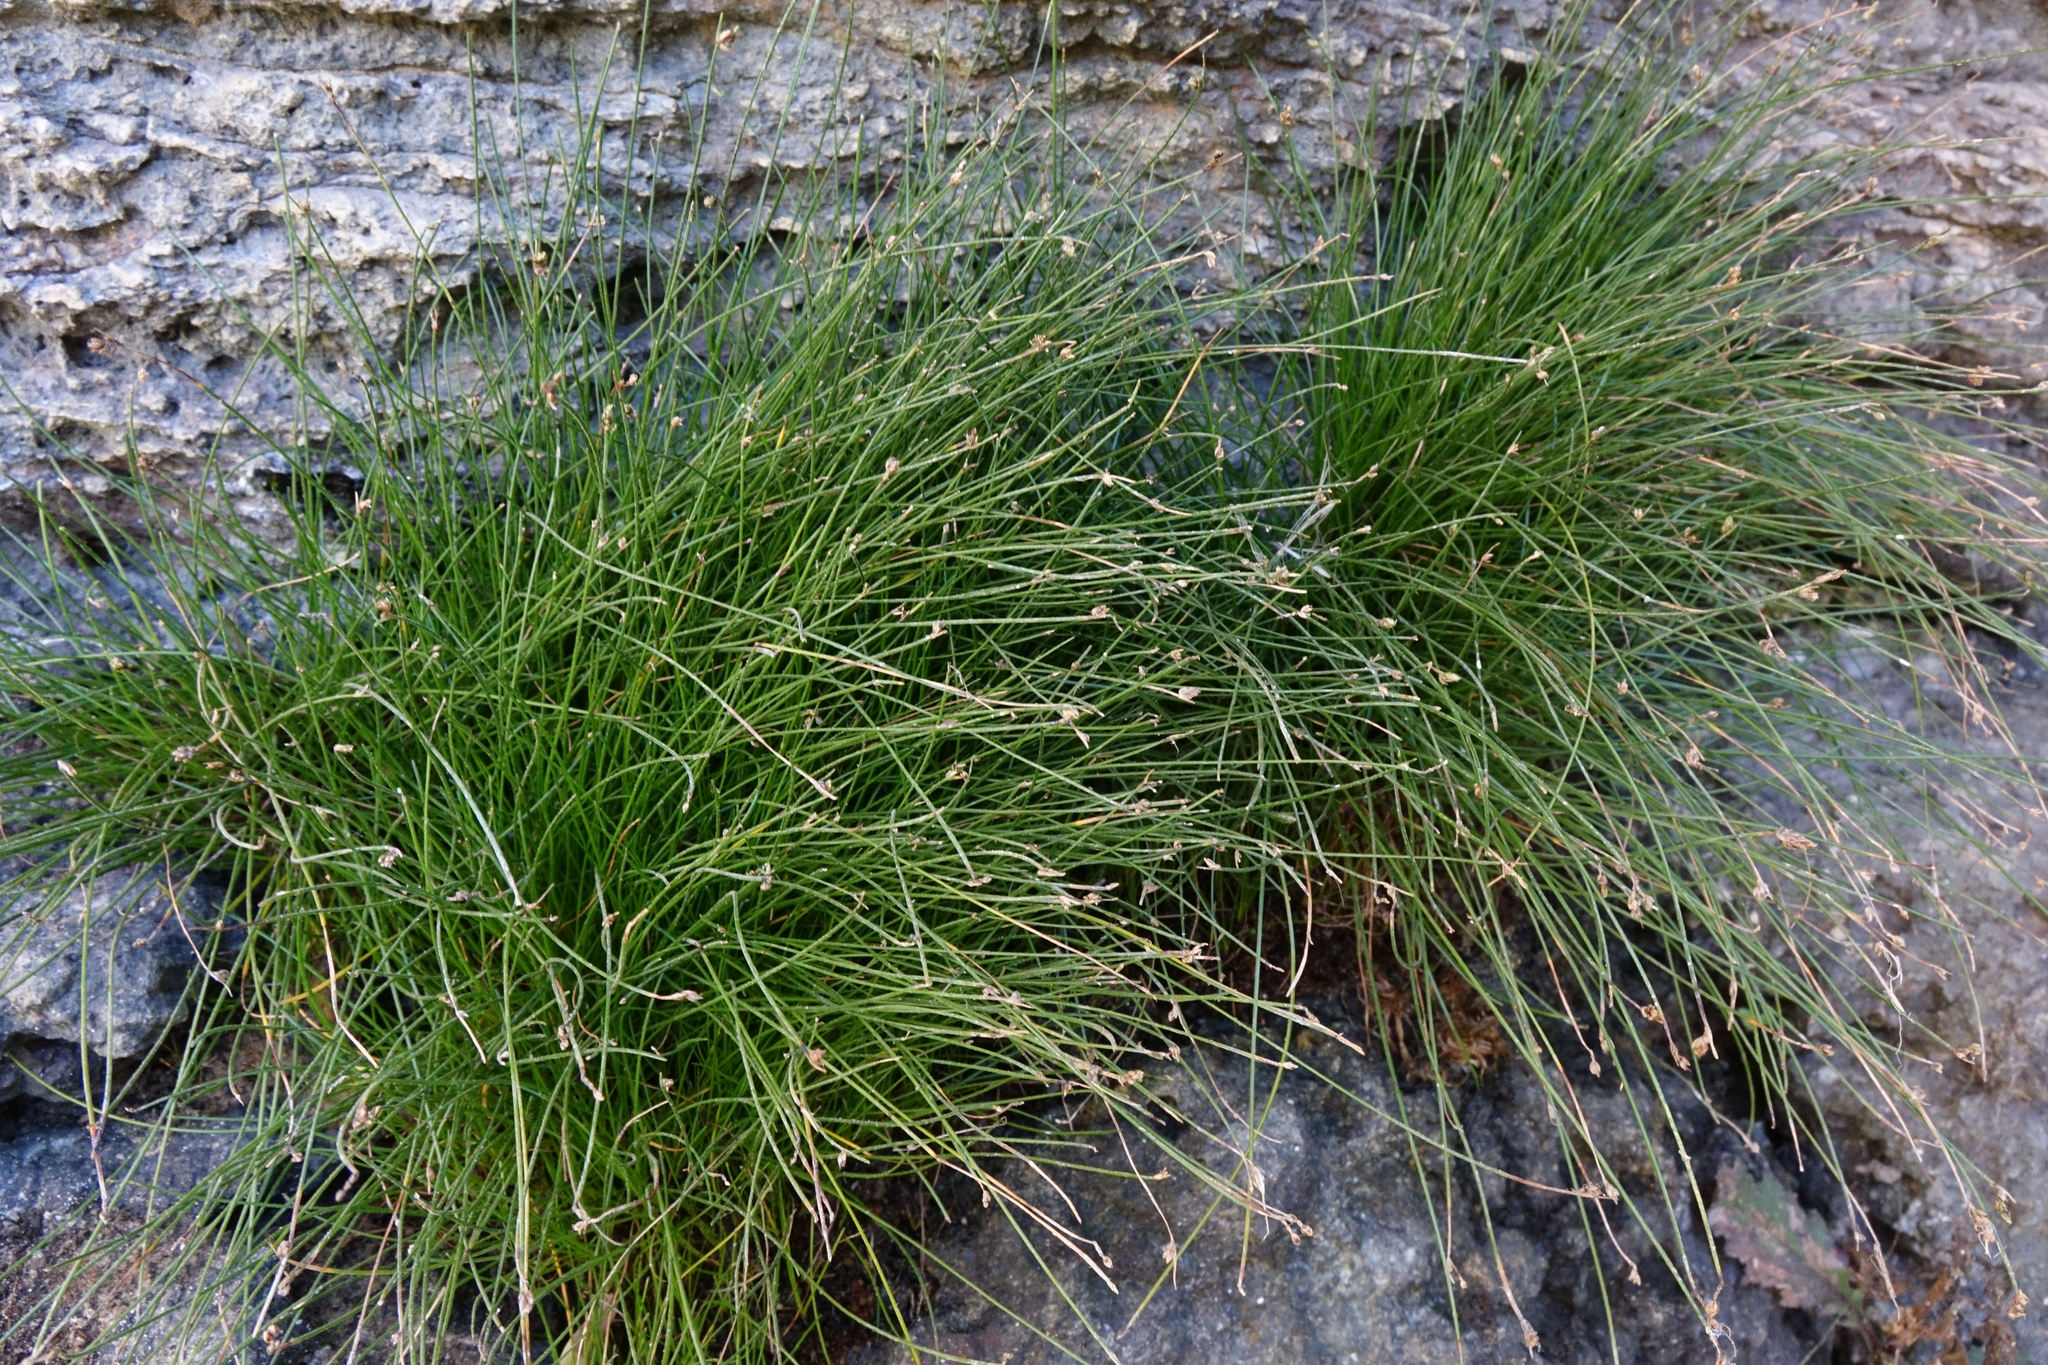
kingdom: Plantae
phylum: Tracheophyta
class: Liliopsida
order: Poales
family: Cyperaceae
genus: Isolepis
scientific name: Isolepis cernua
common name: Slender club-rush
